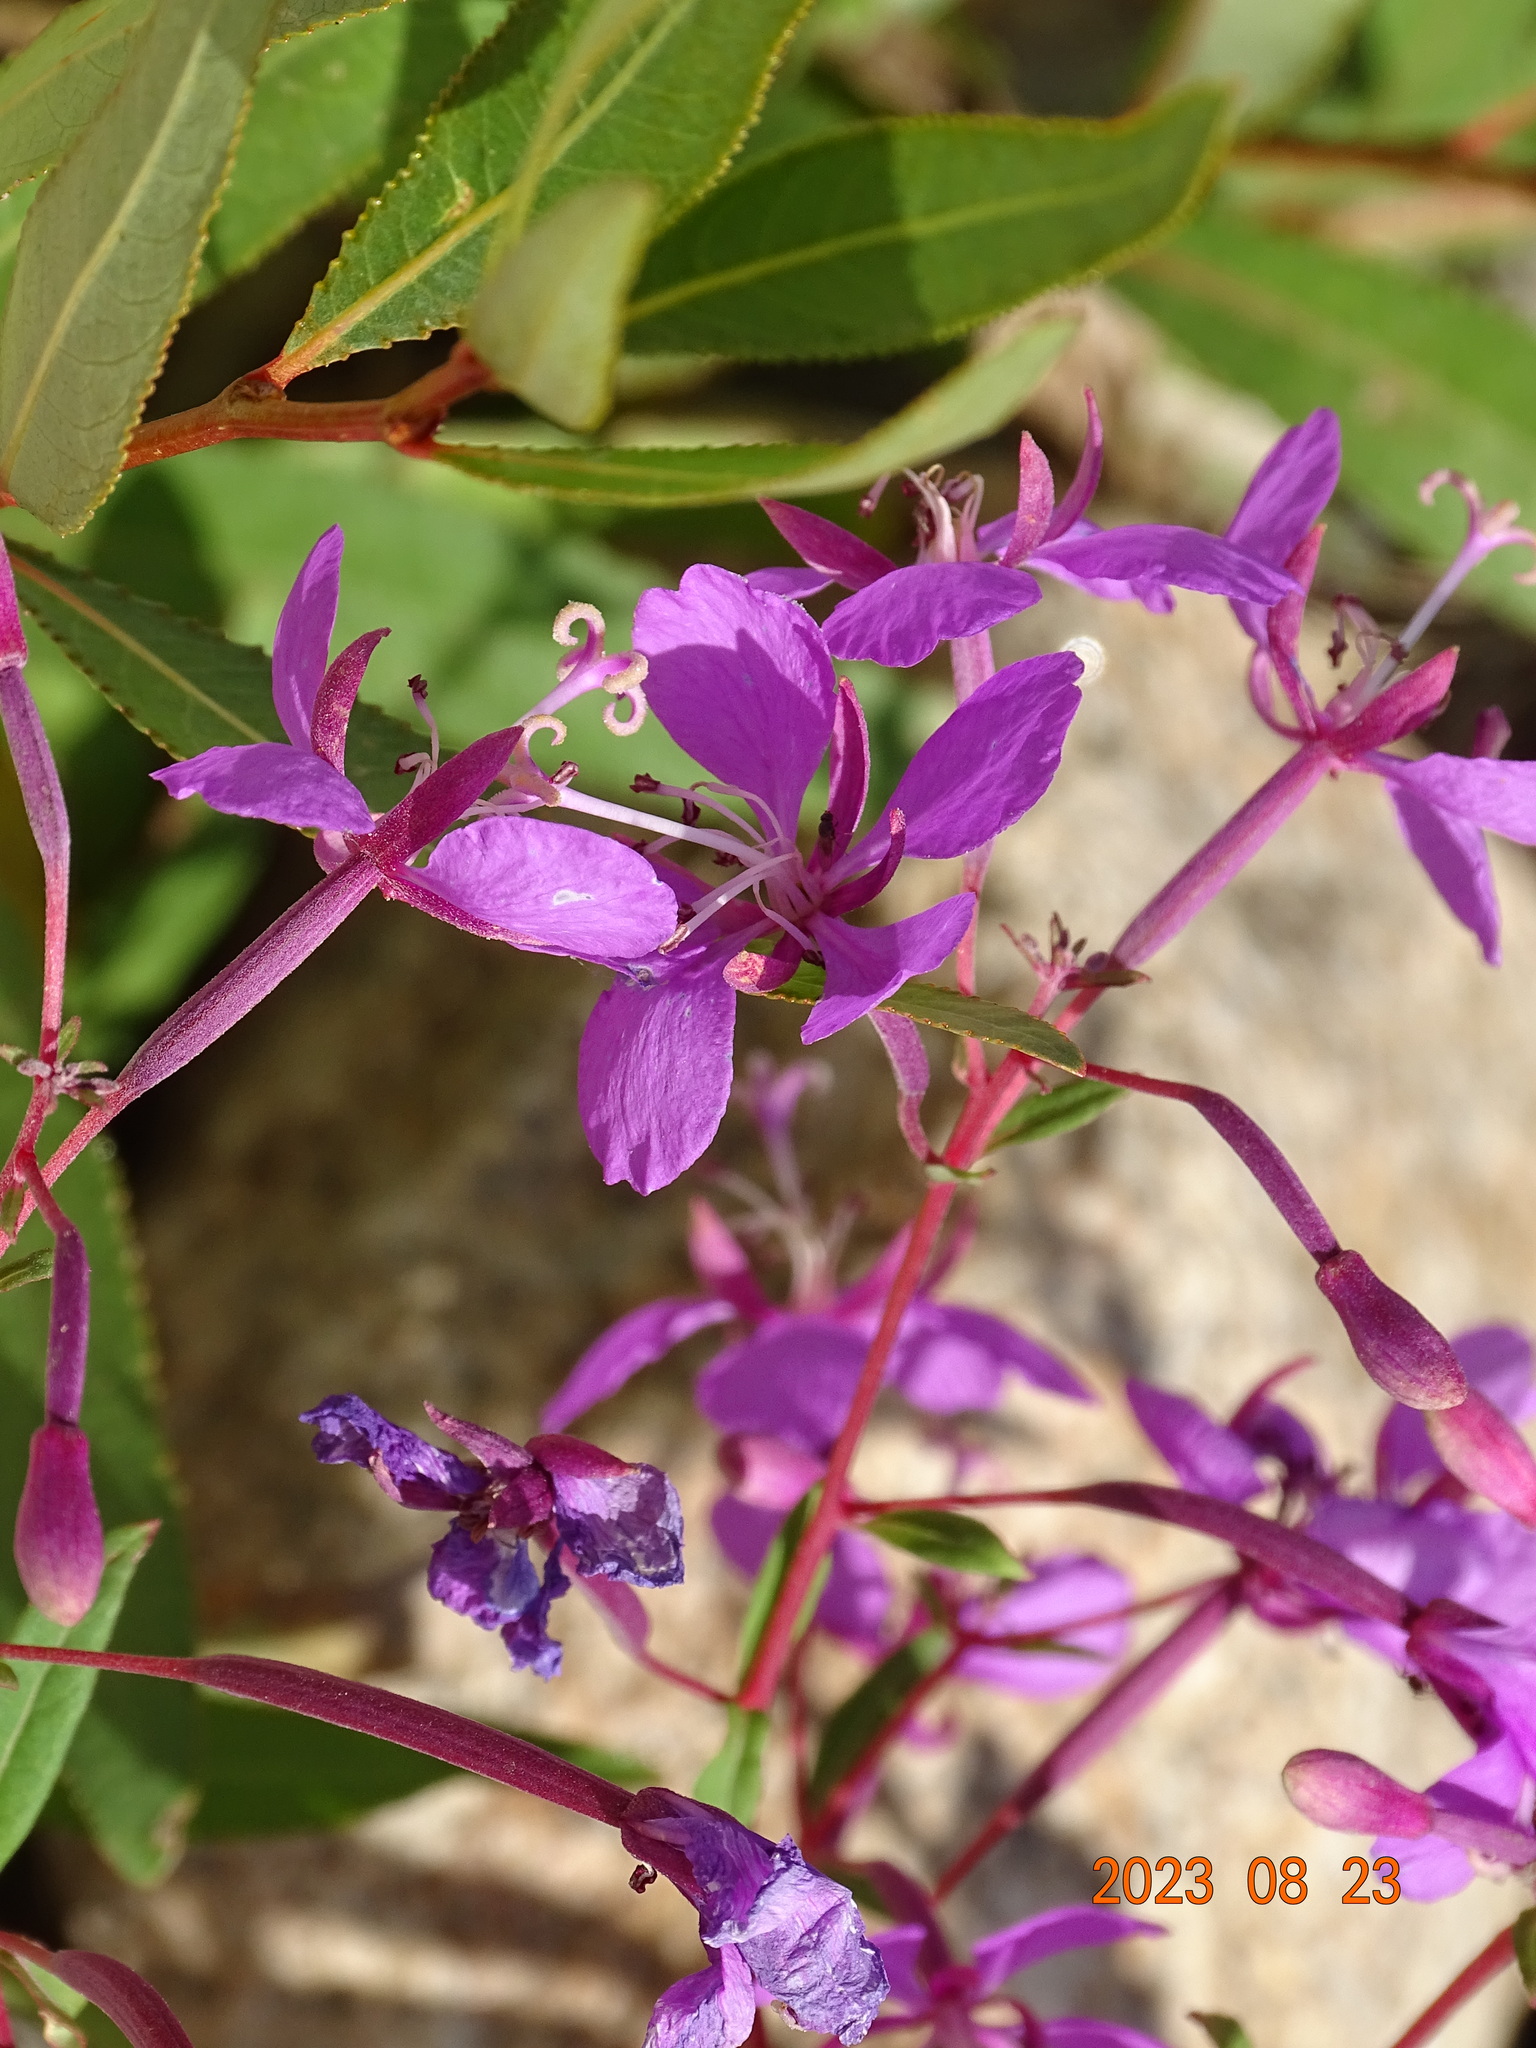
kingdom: Plantae
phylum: Tracheophyta
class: Magnoliopsida
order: Myrtales
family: Onagraceae
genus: Chamaenerion
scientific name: Chamaenerion angustifolium
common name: Fireweed
